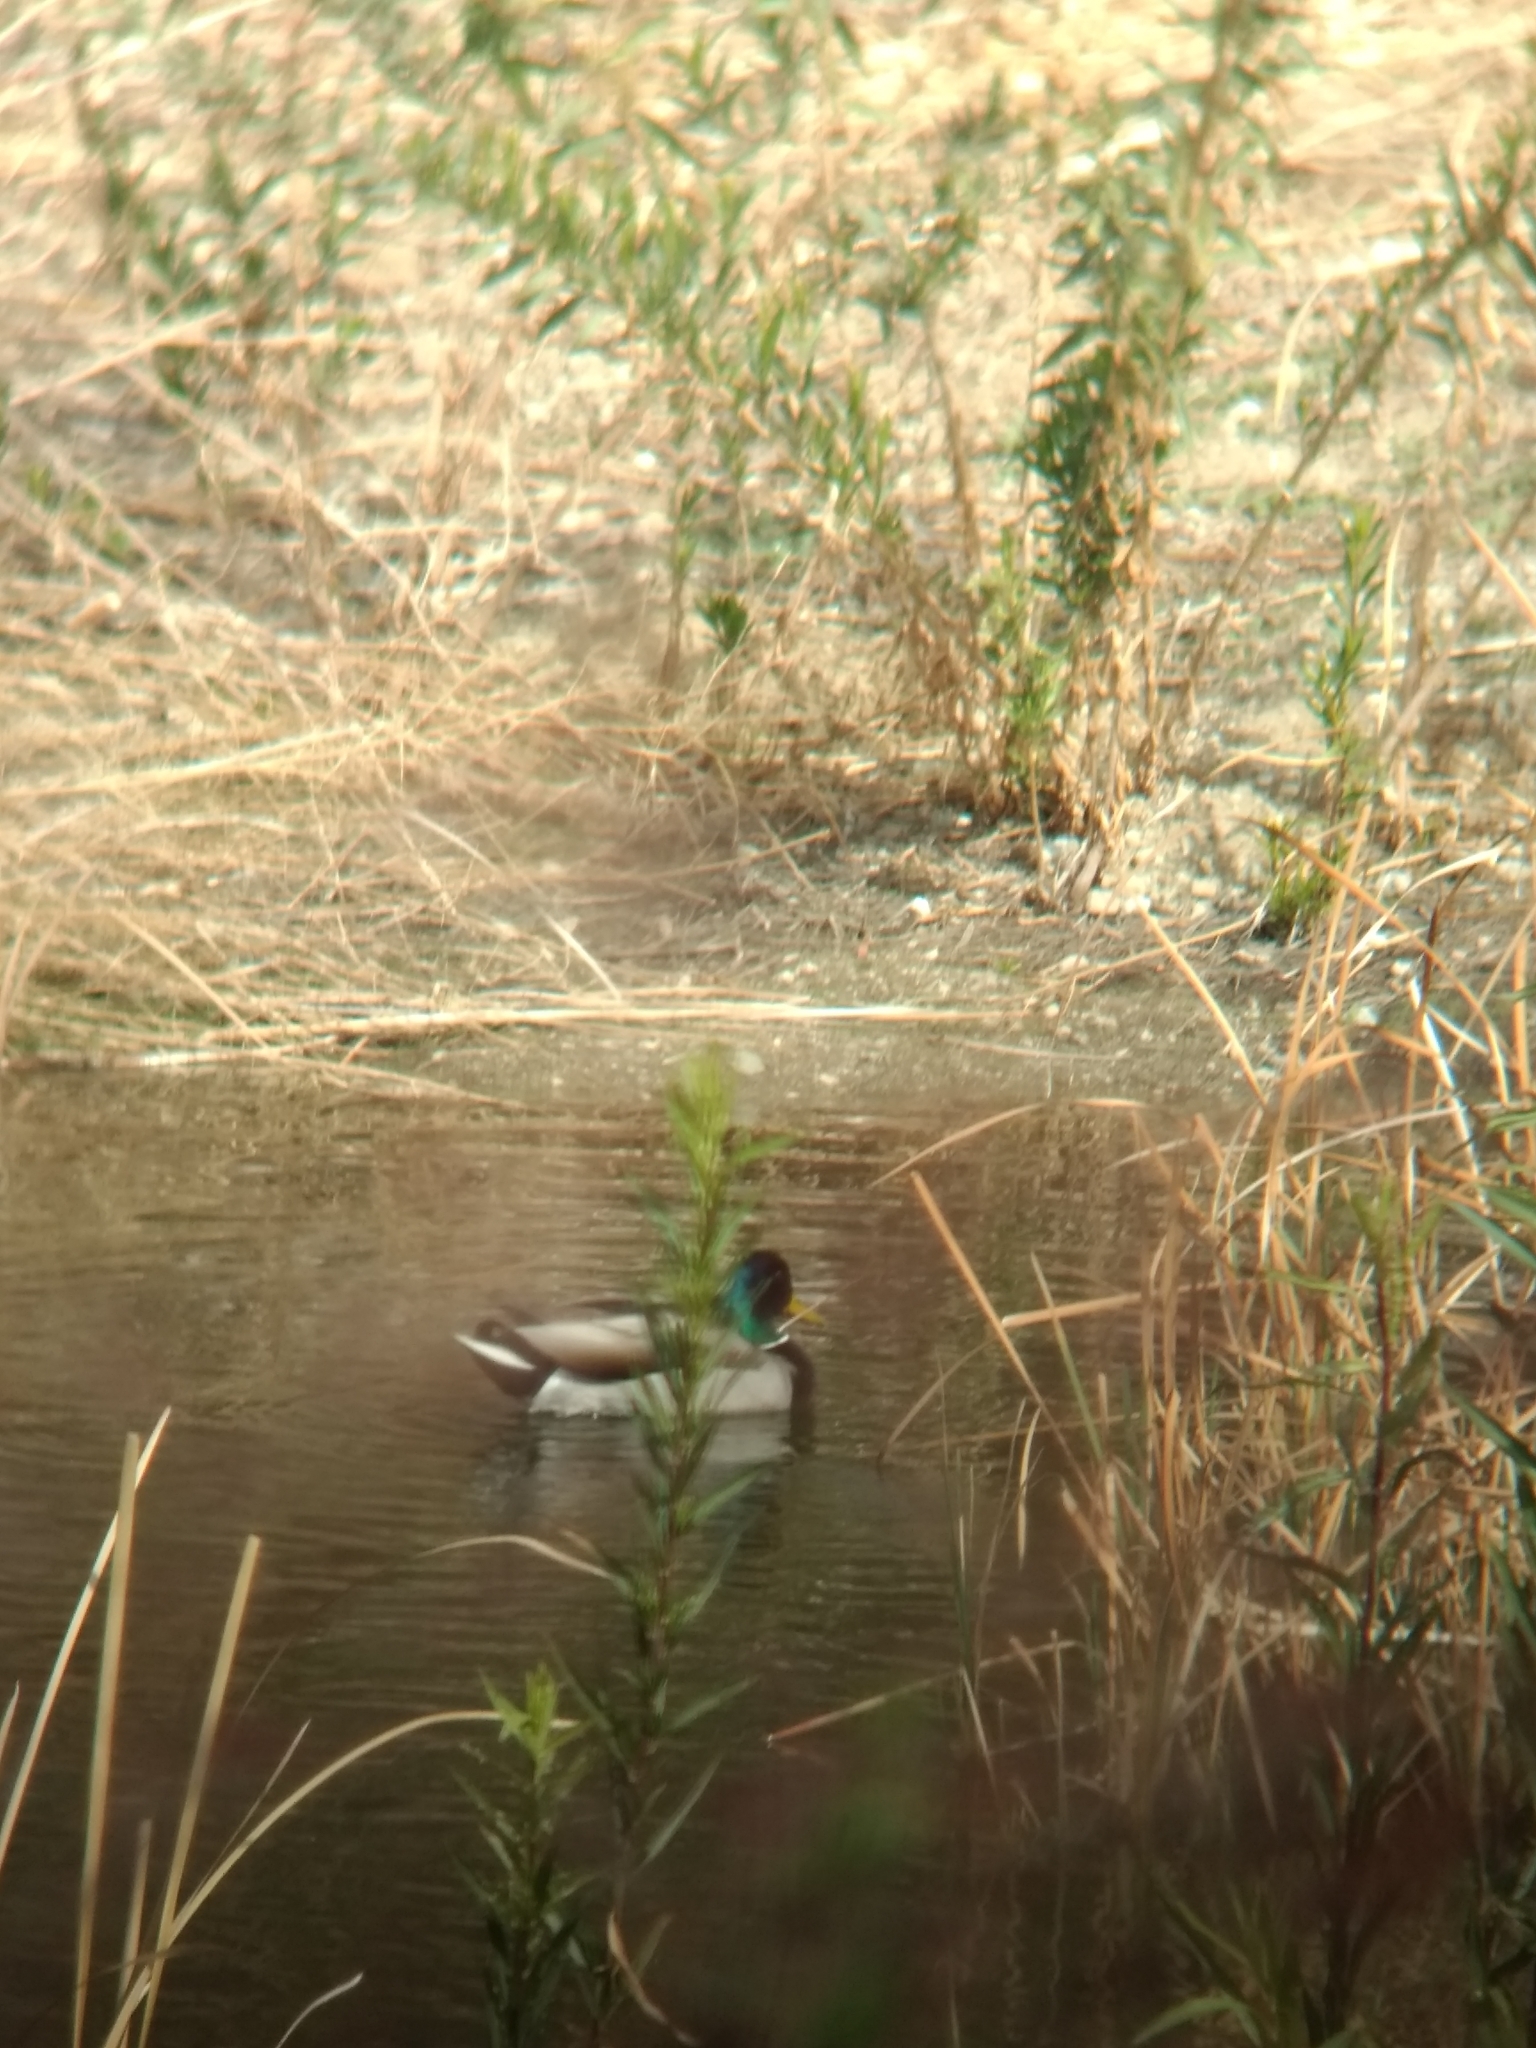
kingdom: Animalia
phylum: Chordata
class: Aves
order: Anseriformes
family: Anatidae
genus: Anas
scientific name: Anas platyrhynchos
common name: Mallard
